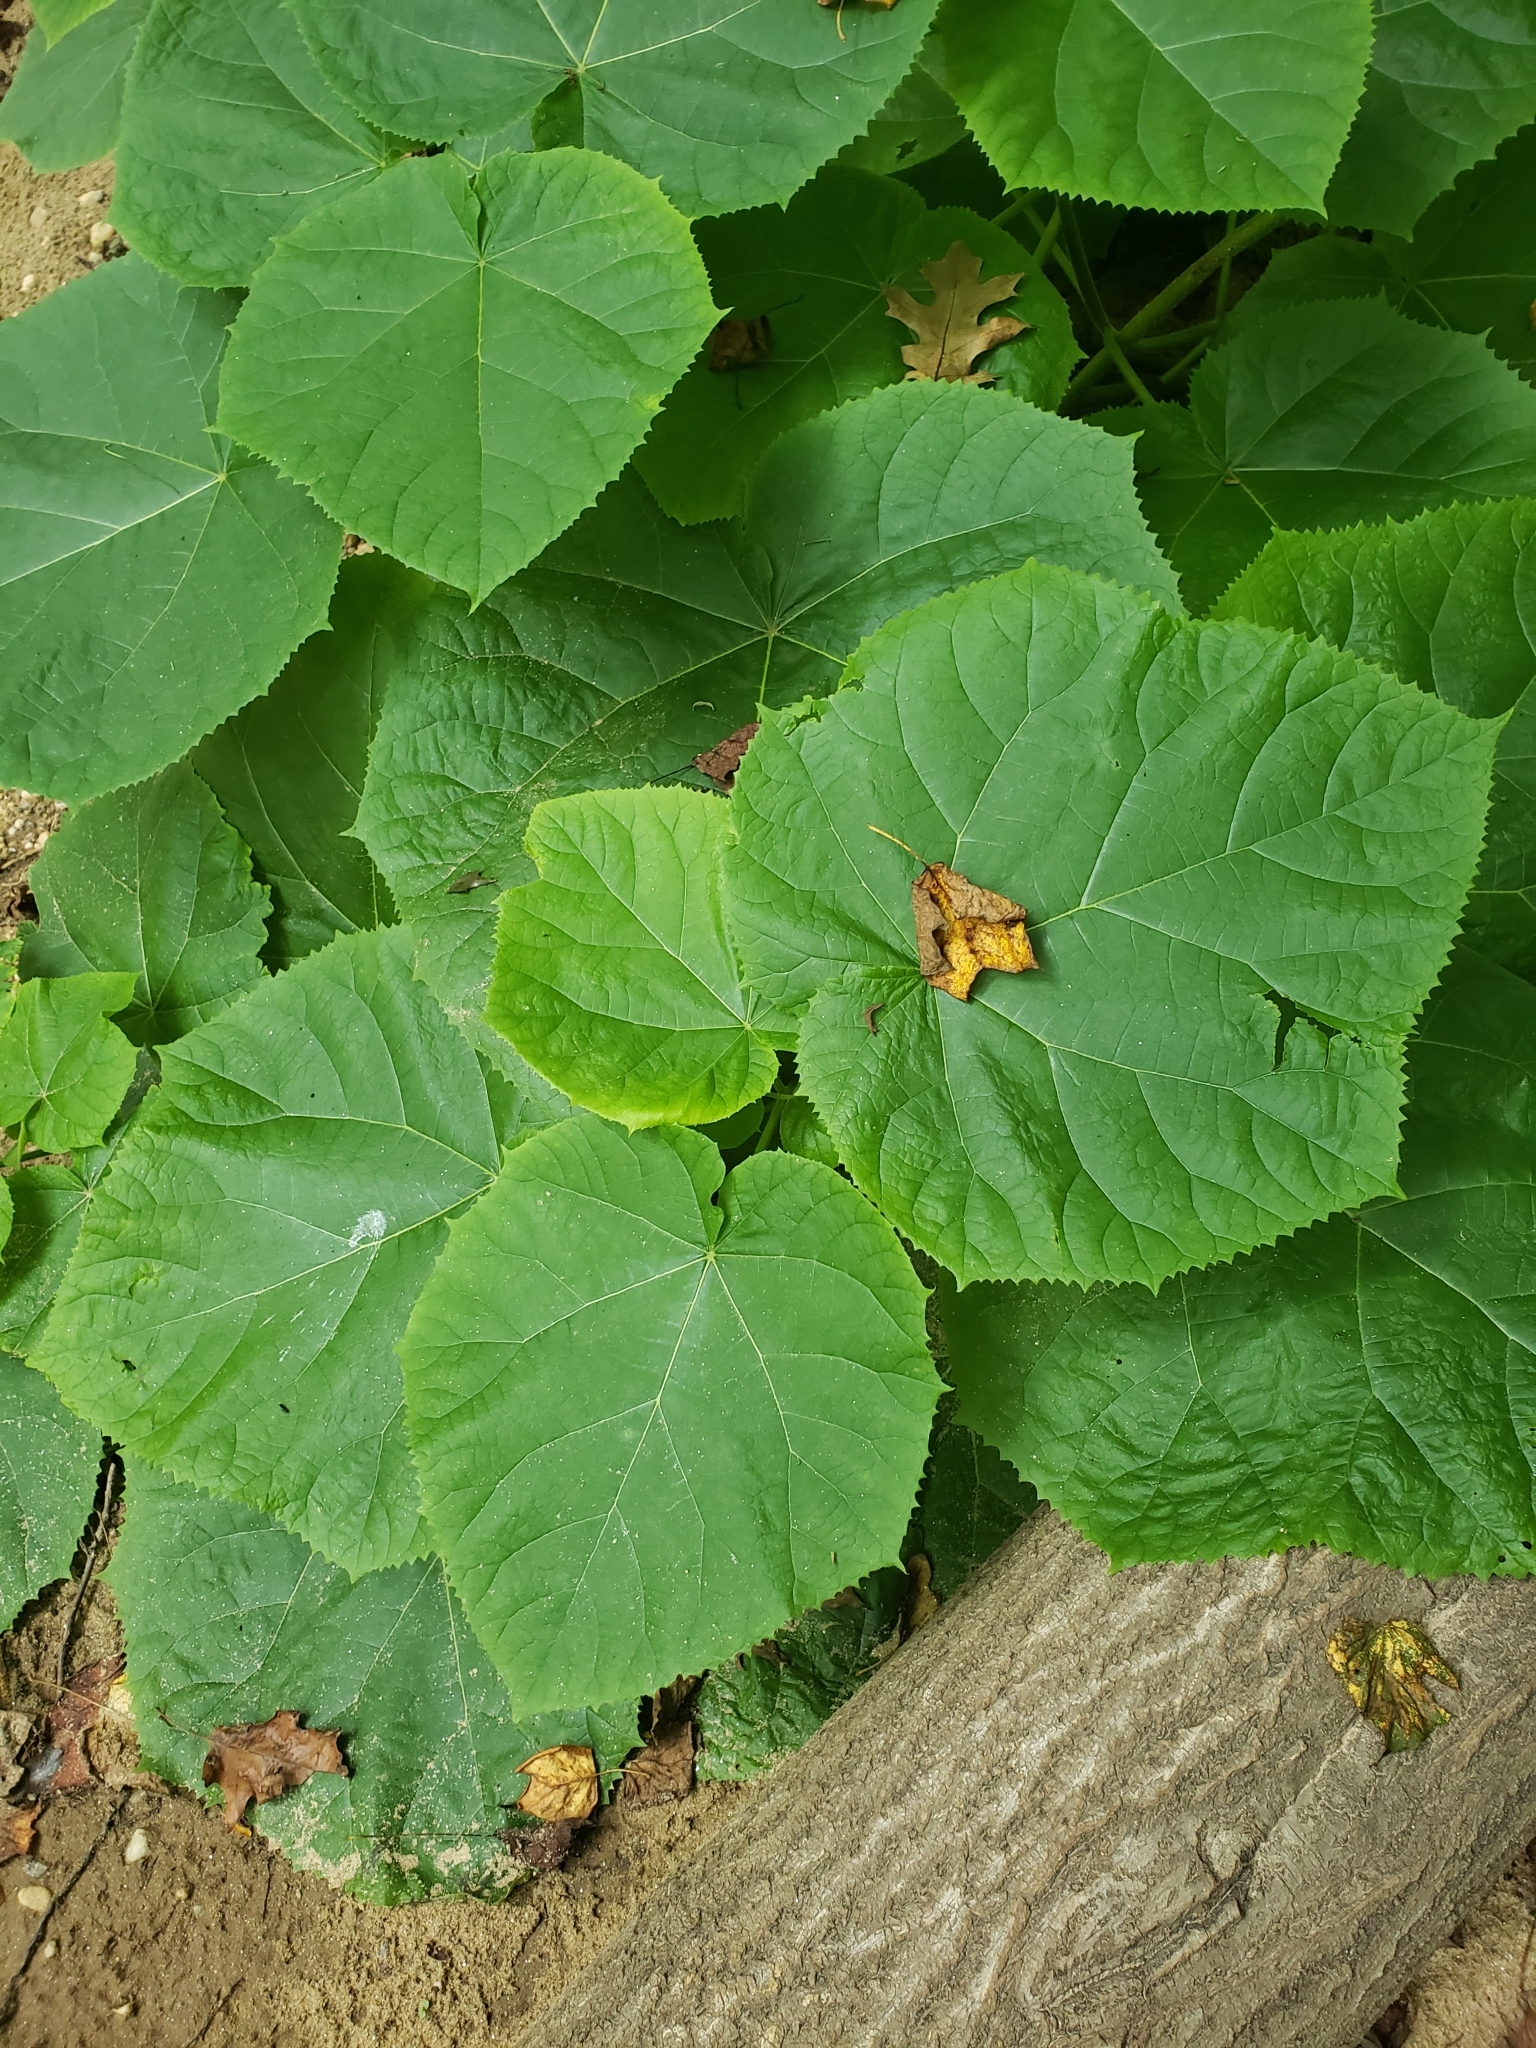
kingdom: Plantae
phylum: Tracheophyta
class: Magnoliopsida
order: Lamiales
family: Paulowniaceae
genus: Paulownia
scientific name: Paulownia tomentosa
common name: Foxglove-tree
